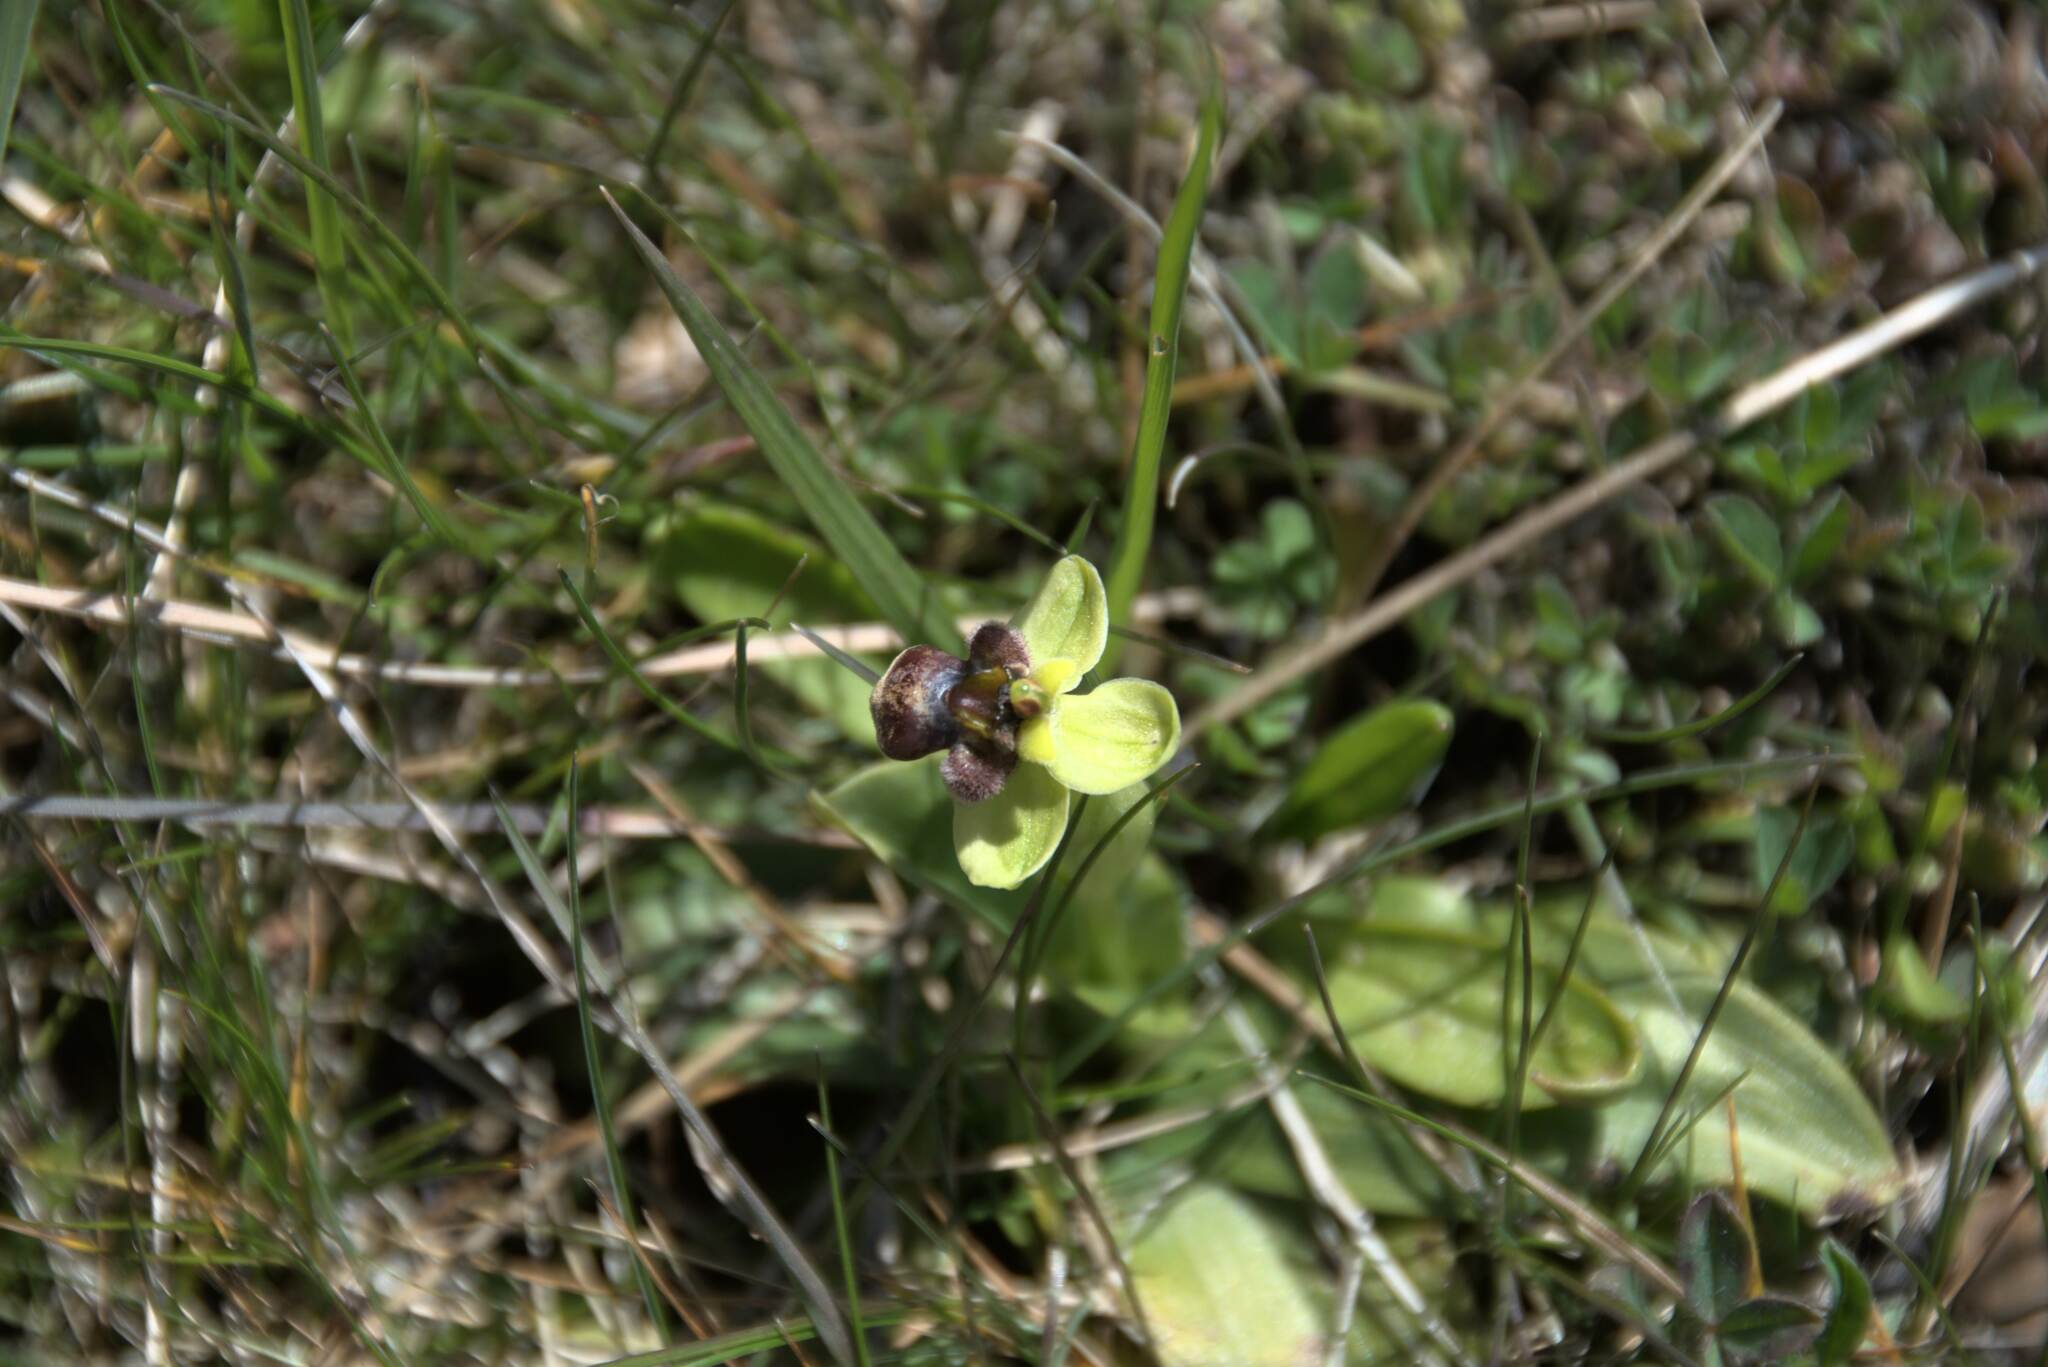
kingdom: Plantae
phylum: Tracheophyta
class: Liliopsida
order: Asparagales
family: Orchidaceae
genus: Ophrys
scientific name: Ophrys bombyliflora
